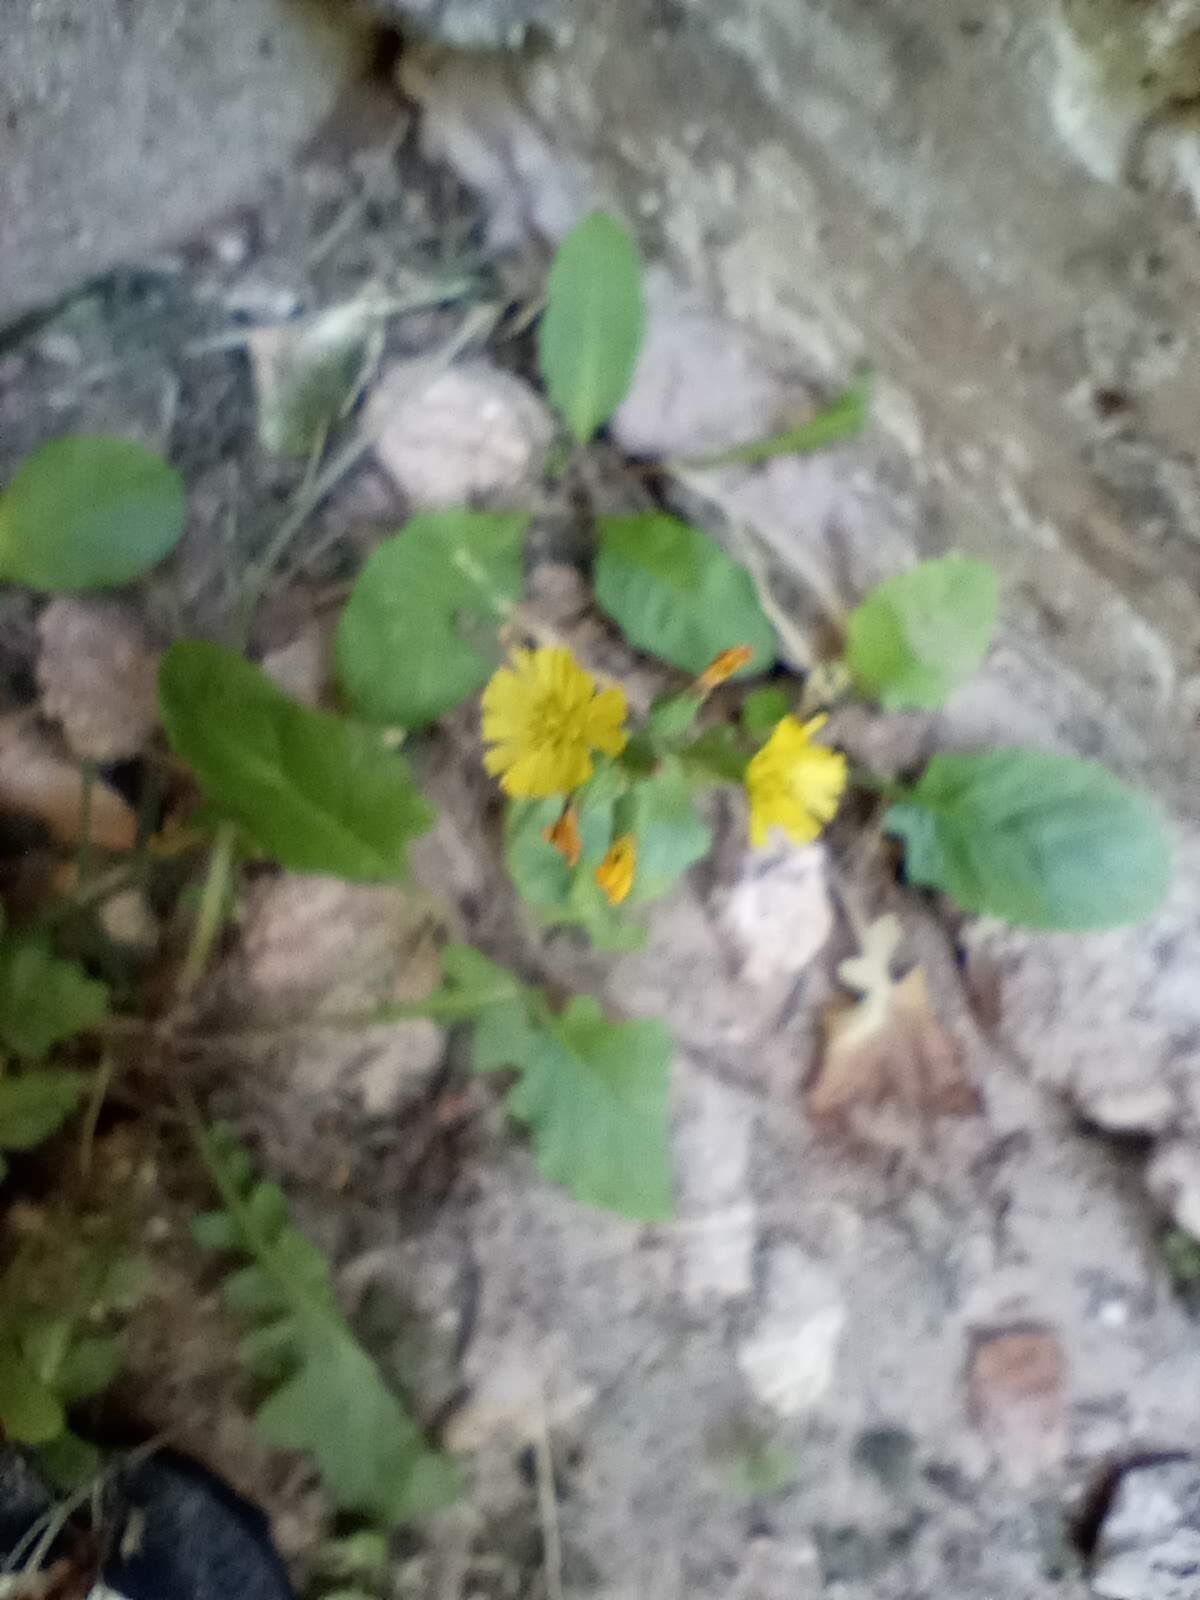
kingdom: Plantae
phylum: Tracheophyta
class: Magnoliopsida
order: Asterales
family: Asteraceae
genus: Youngia
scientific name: Youngia japonica
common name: Oriental false hawksbeard
